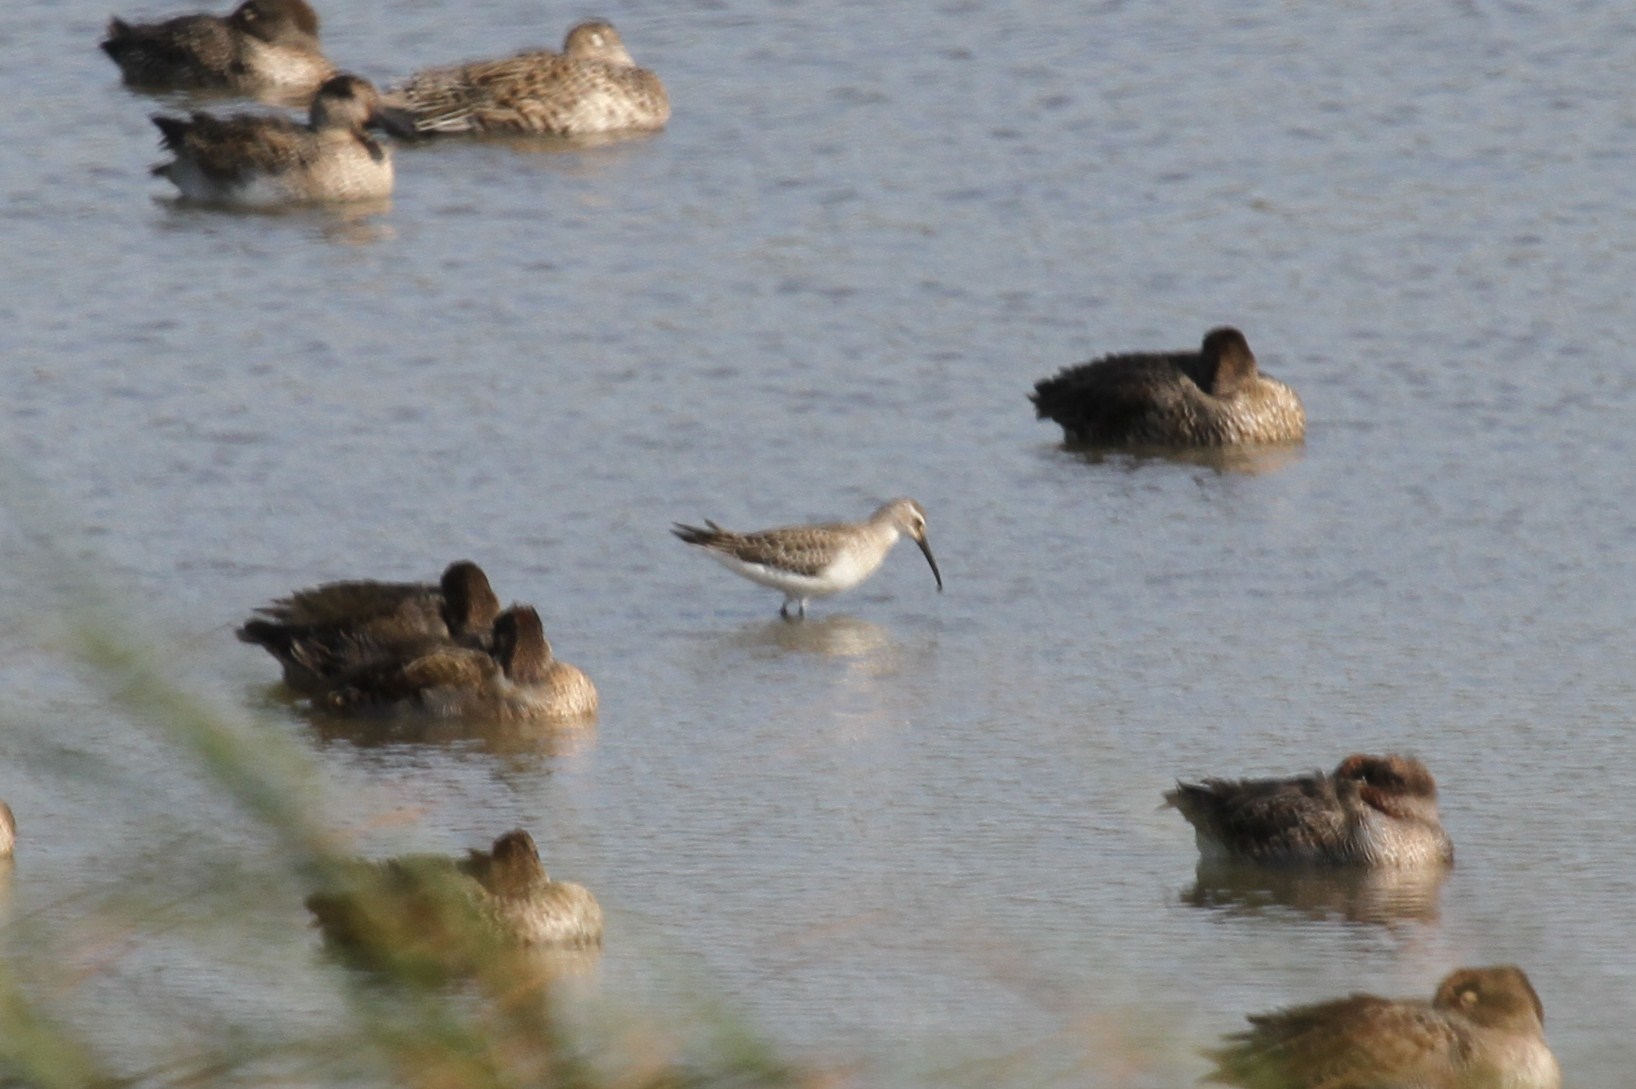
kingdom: Animalia
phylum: Chordata
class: Aves
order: Charadriiformes
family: Scolopacidae
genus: Calidris
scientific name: Calidris ferruginea
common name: Curlew sandpiper
